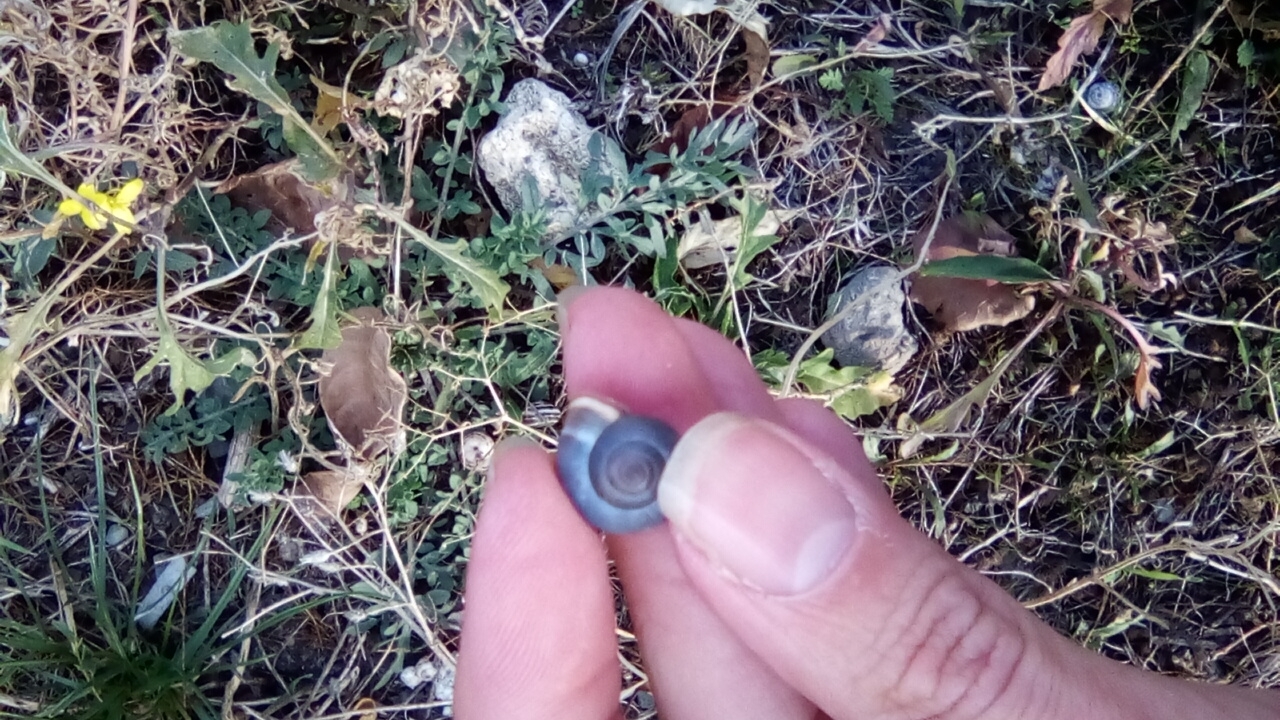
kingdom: Animalia
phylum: Mollusca
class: Gastropoda
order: Stylommatophora
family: Hygromiidae
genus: Monacha
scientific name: Monacha cartusiana
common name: Carthusian snail
